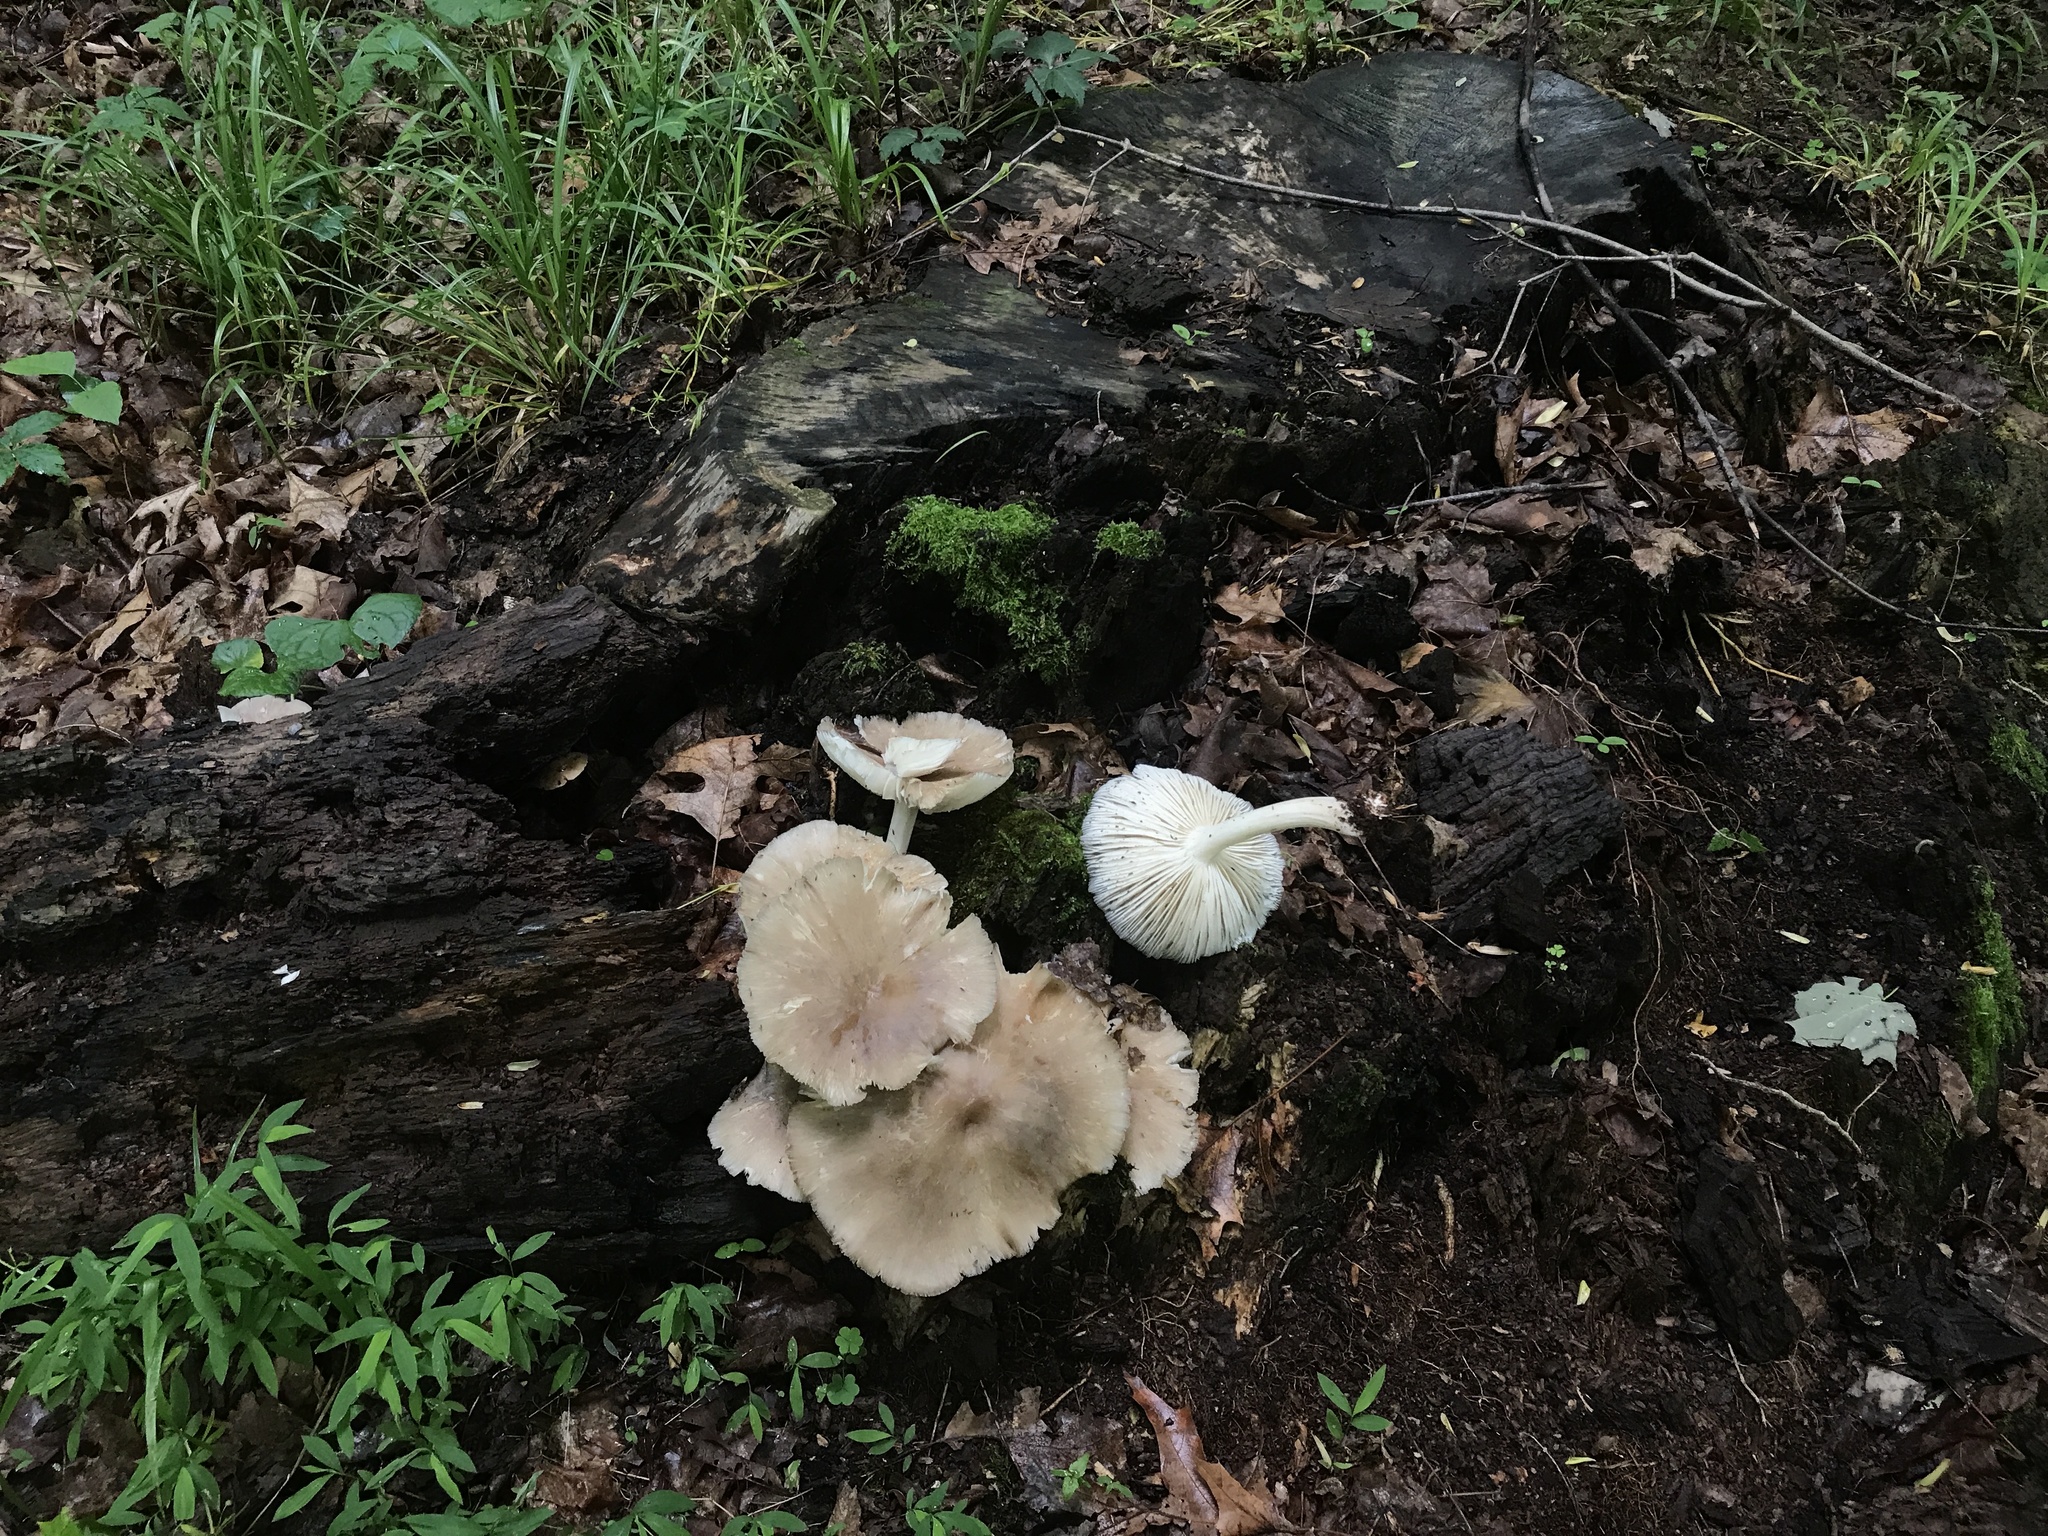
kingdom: Fungi
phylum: Basidiomycota
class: Agaricomycetes
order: Agaricales
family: Tricholomataceae
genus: Megacollybia
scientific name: Megacollybia rodmanii
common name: Eastern american platterful mushroom
